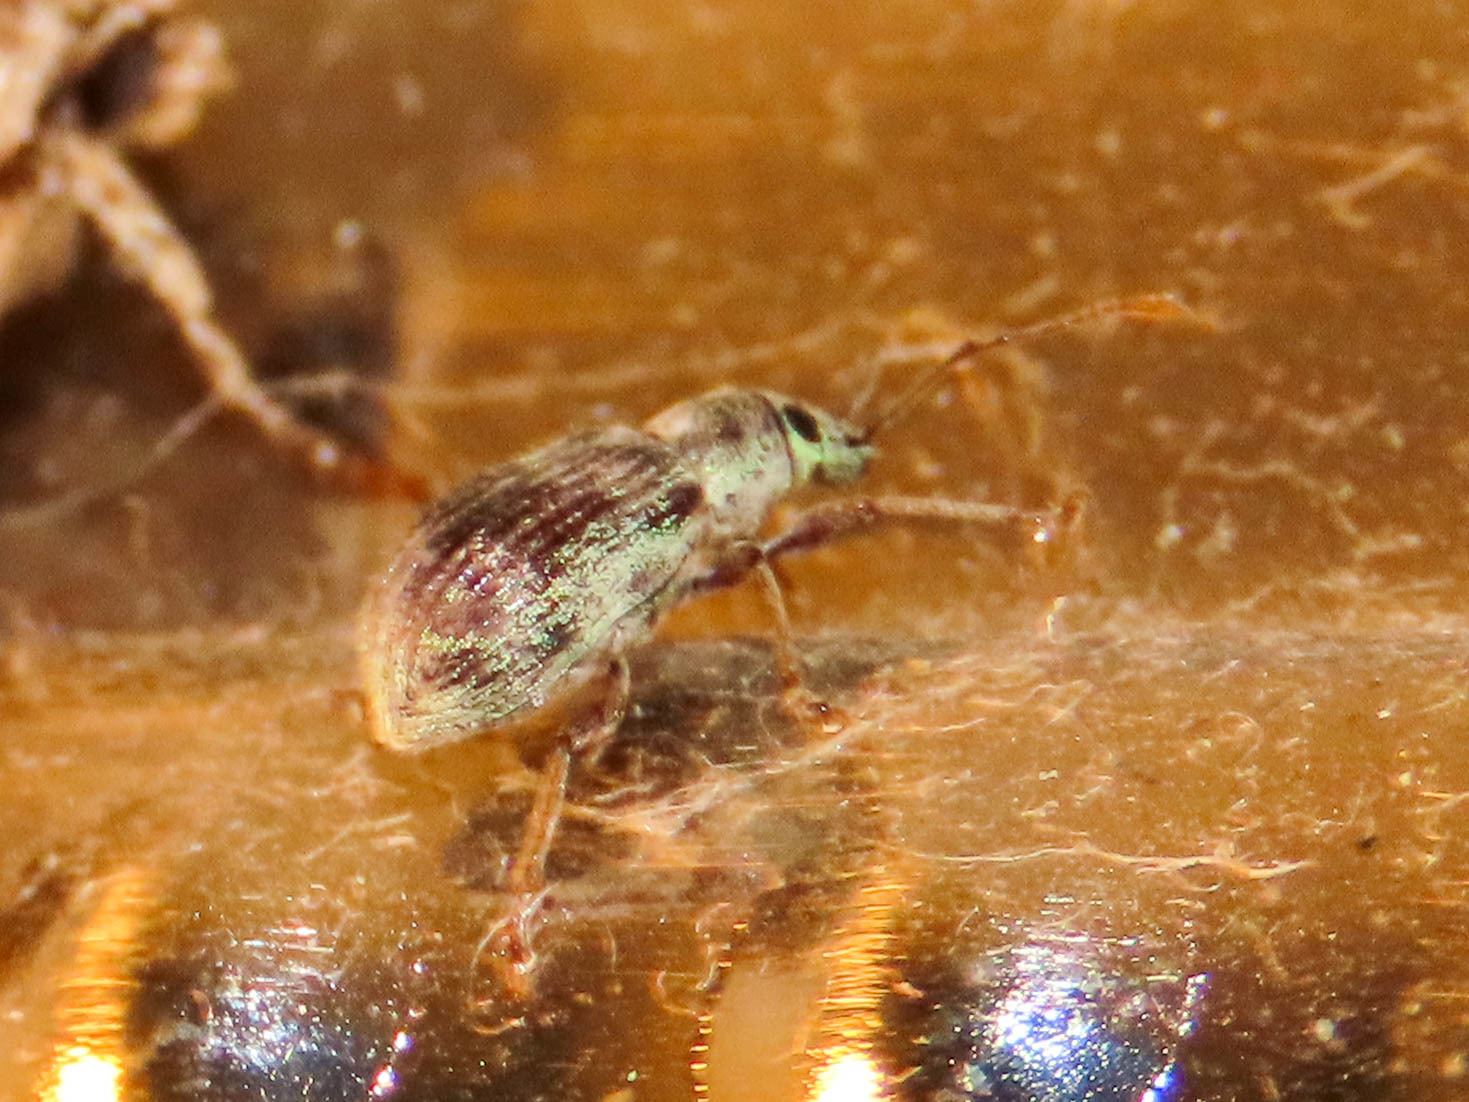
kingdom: Animalia
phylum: Arthropoda
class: Insecta
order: Coleoptera
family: Curculionidae
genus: Cyrtepistomus
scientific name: Cyrtepistomus castaneus
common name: Weevil
